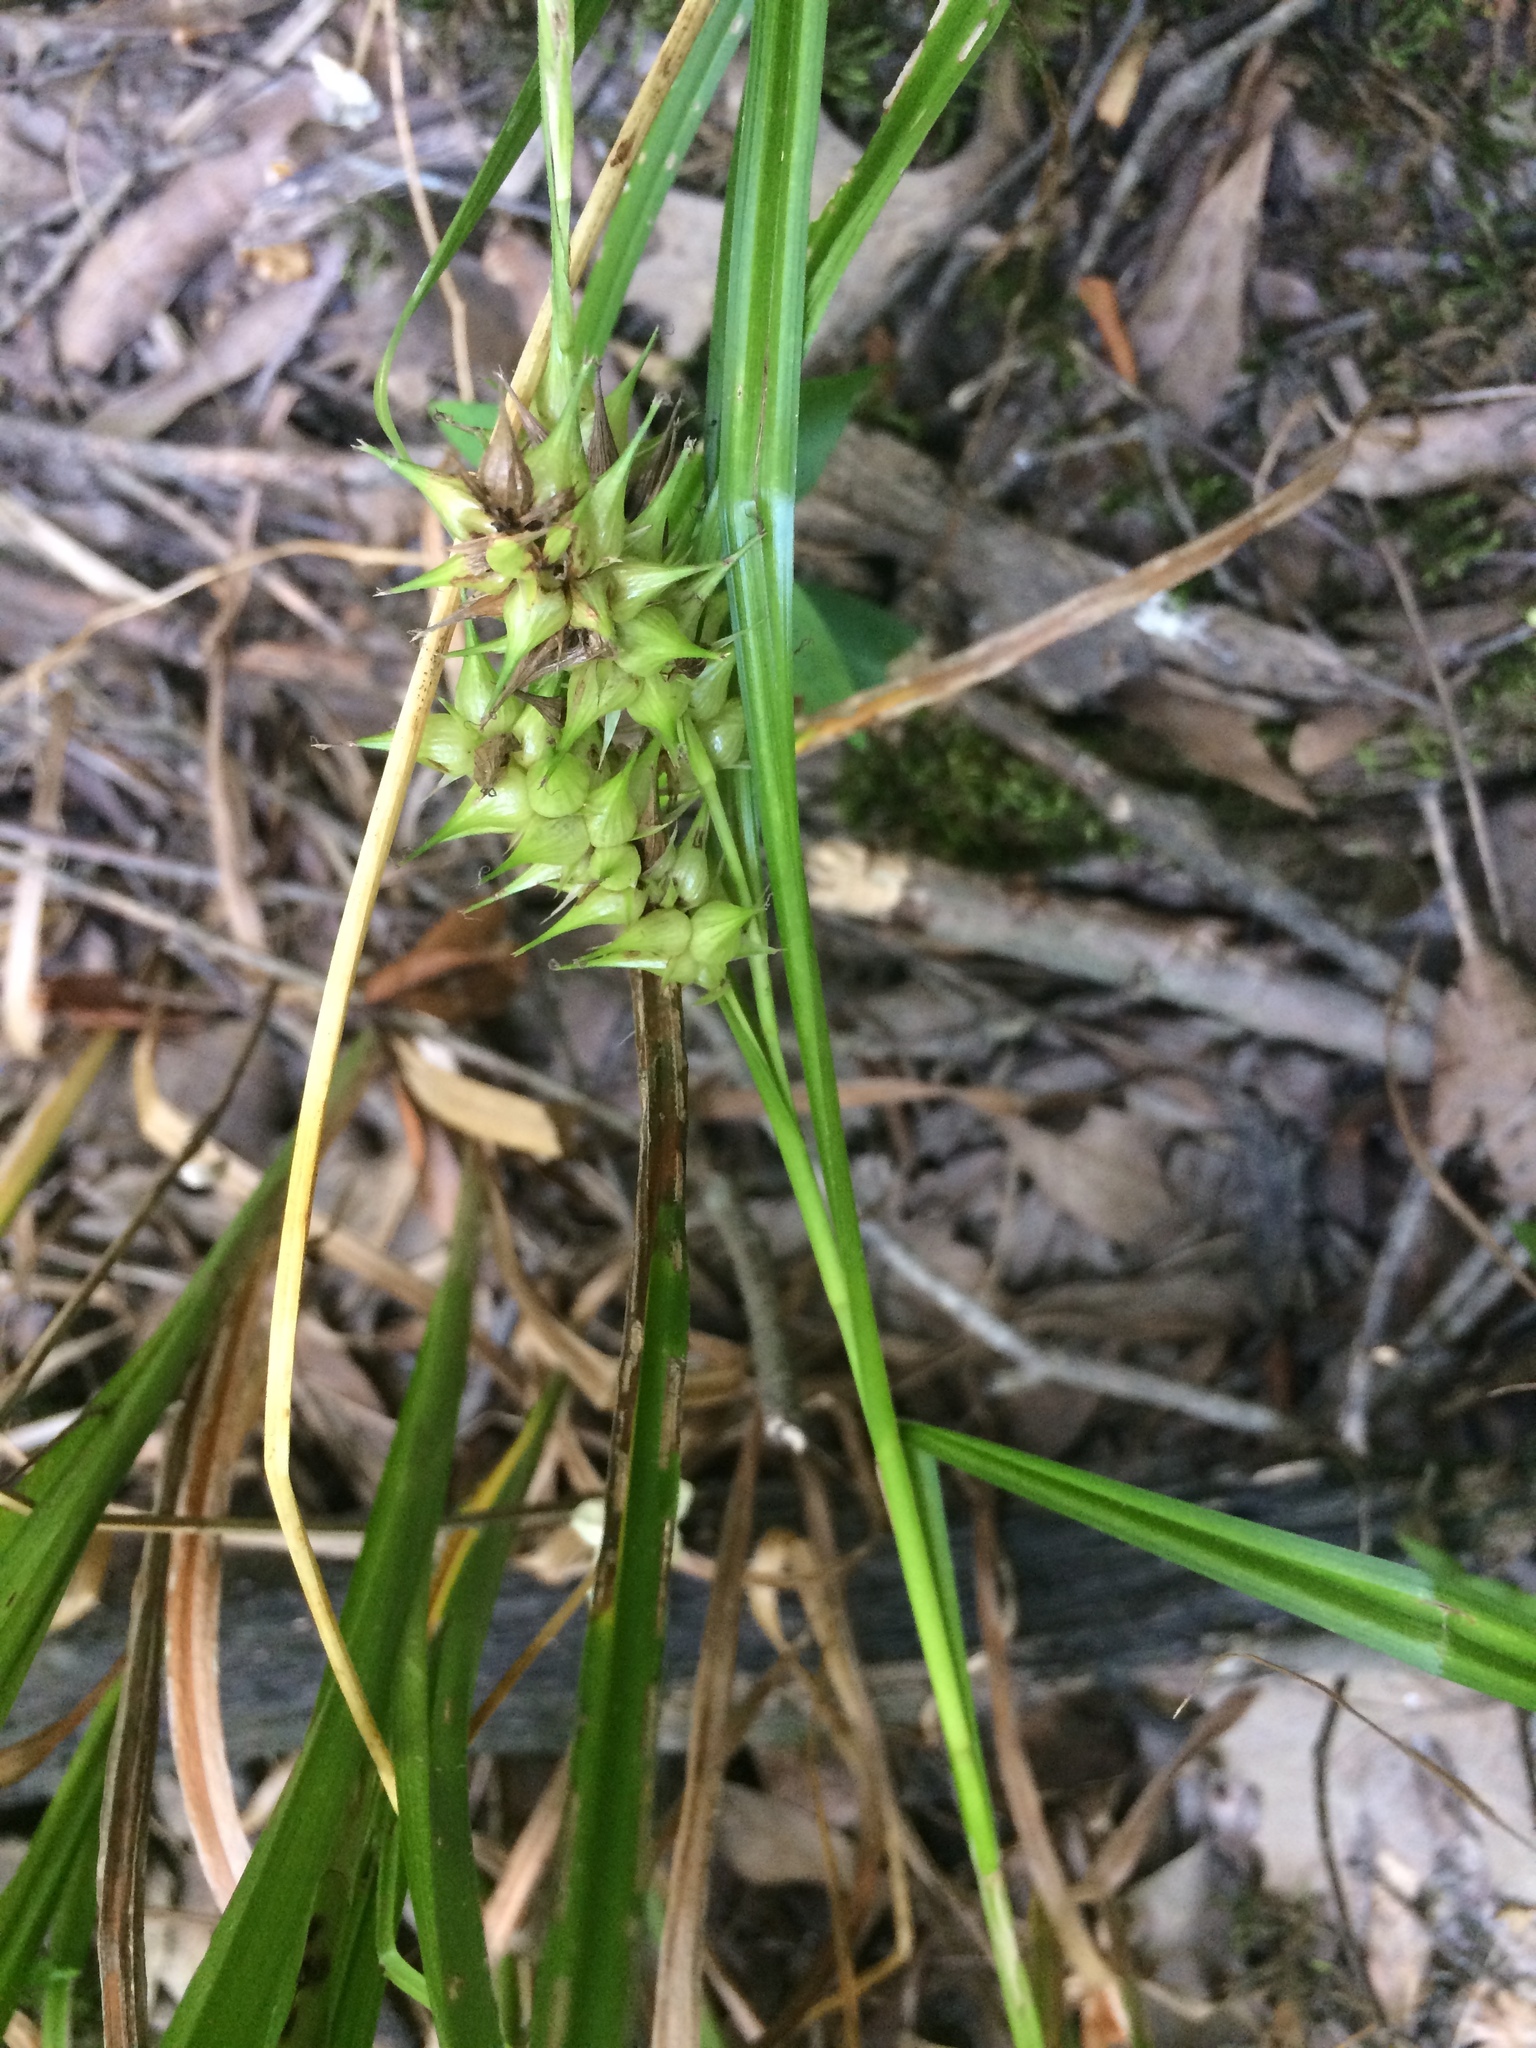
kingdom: Plantae
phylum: Tracheophyta
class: Liliopsida
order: Poales
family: Cyperaceae
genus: Carex
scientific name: Carex lupuliformis
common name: False hop sedge
